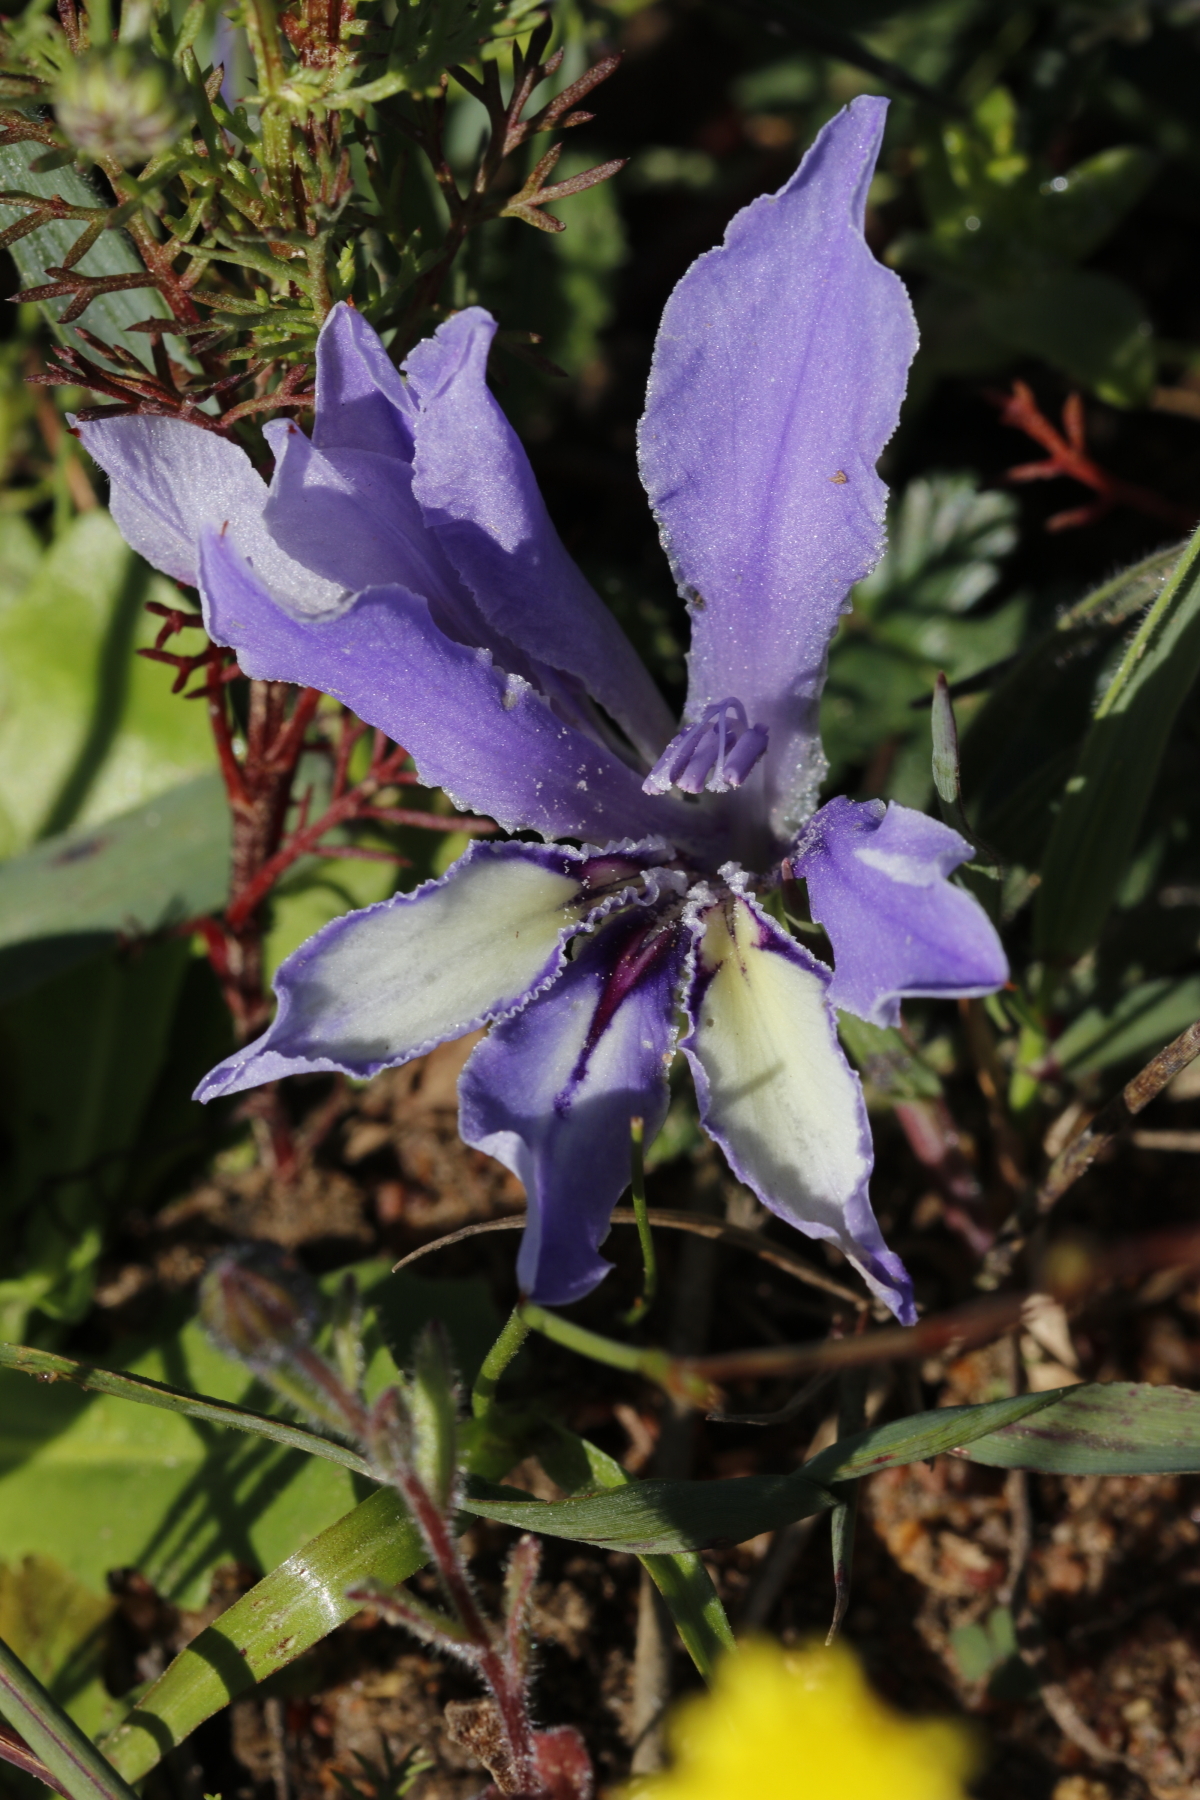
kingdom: Plantae
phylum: Tracheophyta
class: Liliopsida
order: Asparagales
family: Iridaceae
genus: Babiana
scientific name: Babiana ambigua
